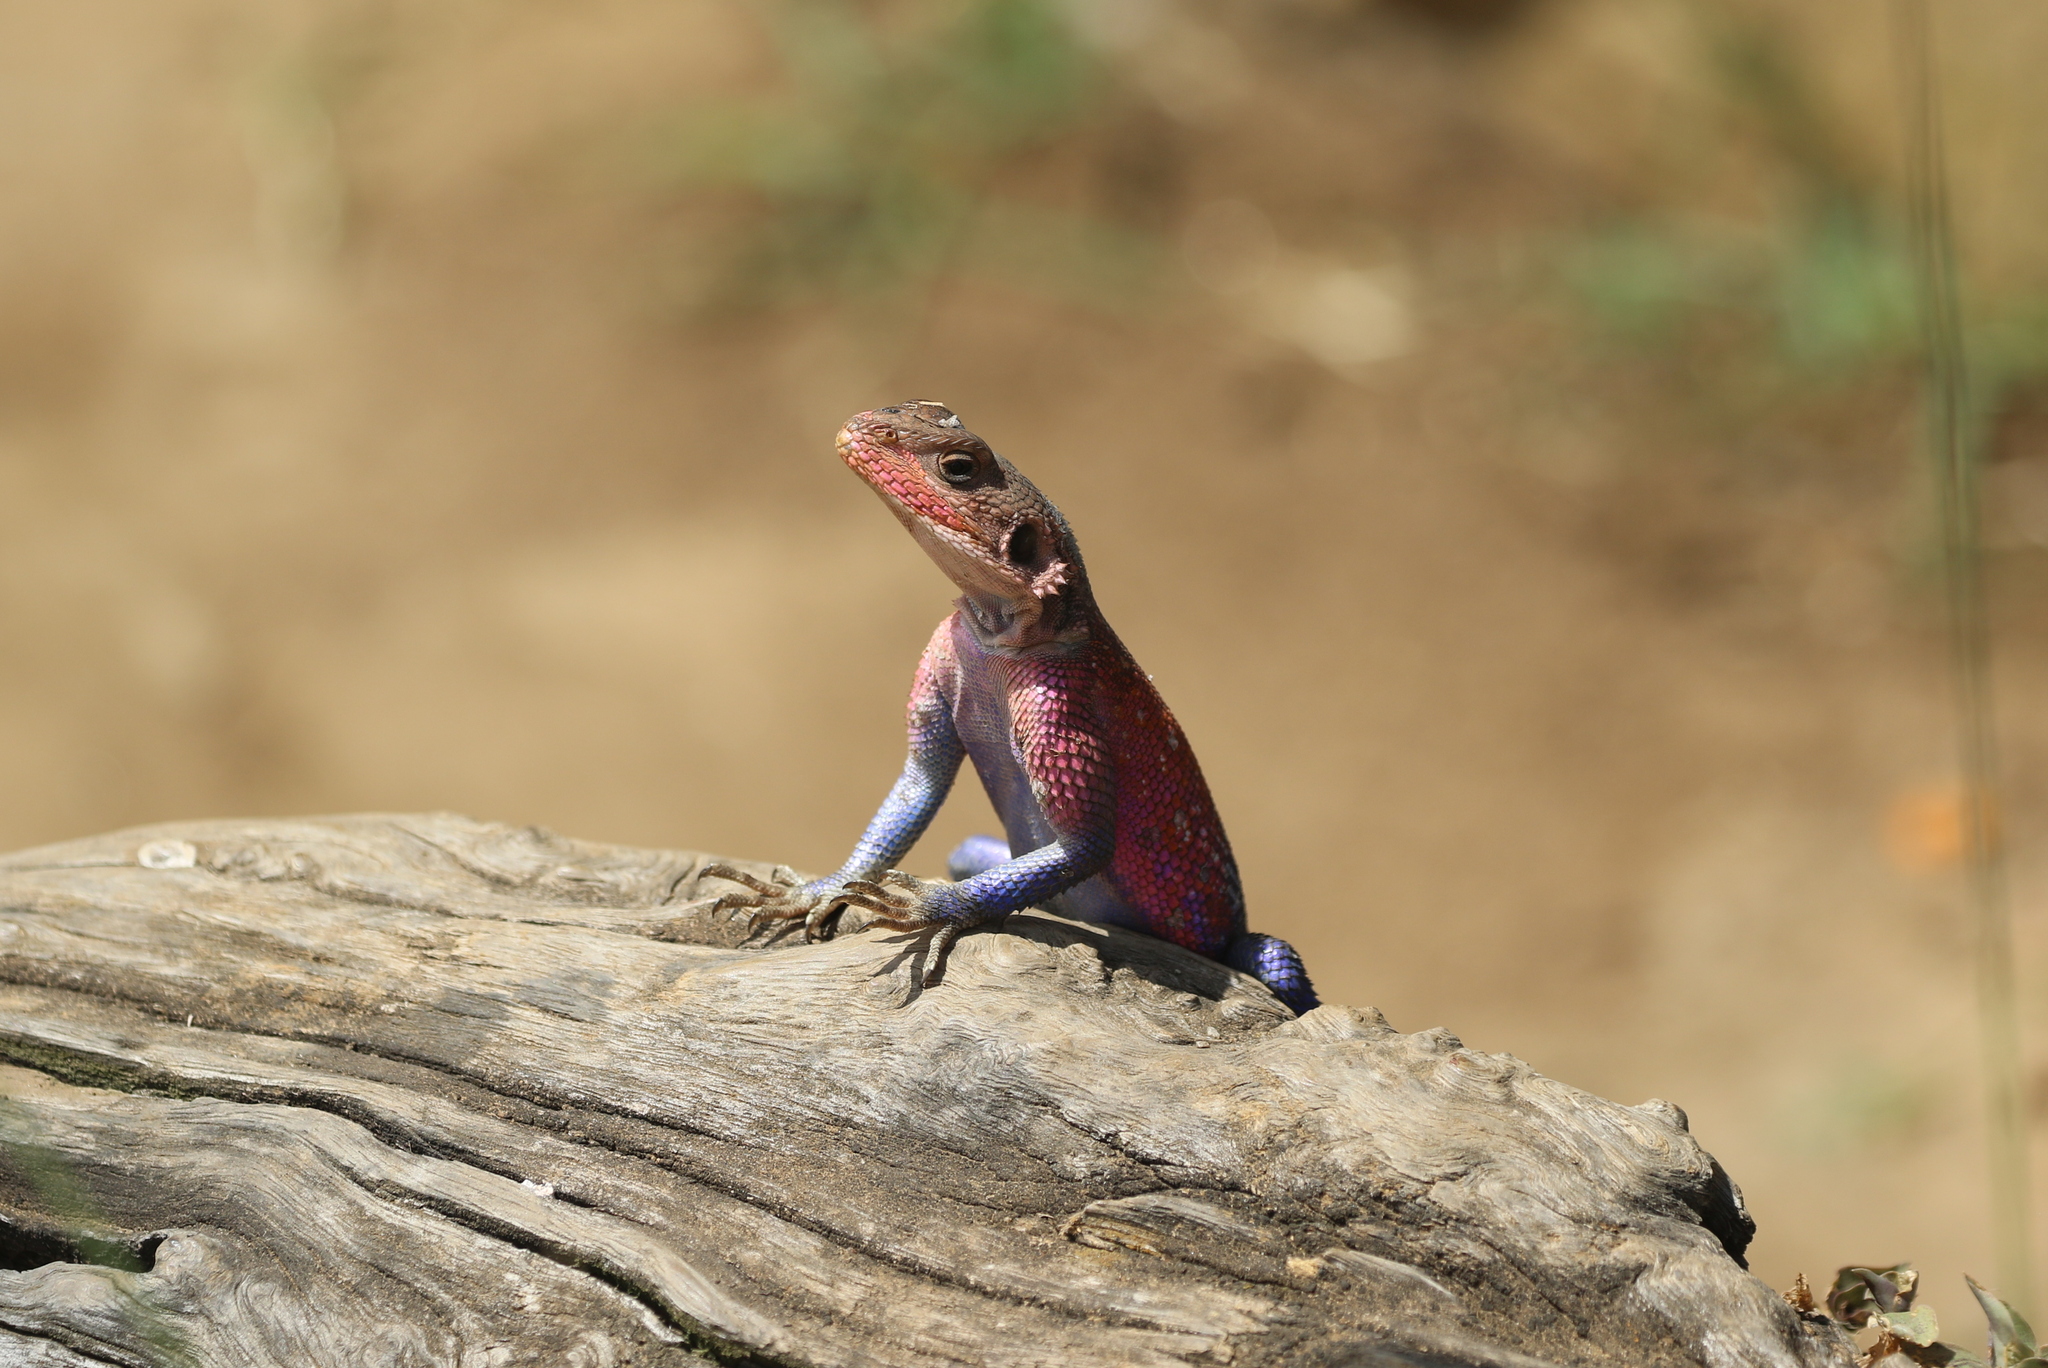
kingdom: Animalia
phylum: Chordata
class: Squamata
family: Agamidae
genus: Agama
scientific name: Agama mwanzae
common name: Mwanza flat-headed agama
